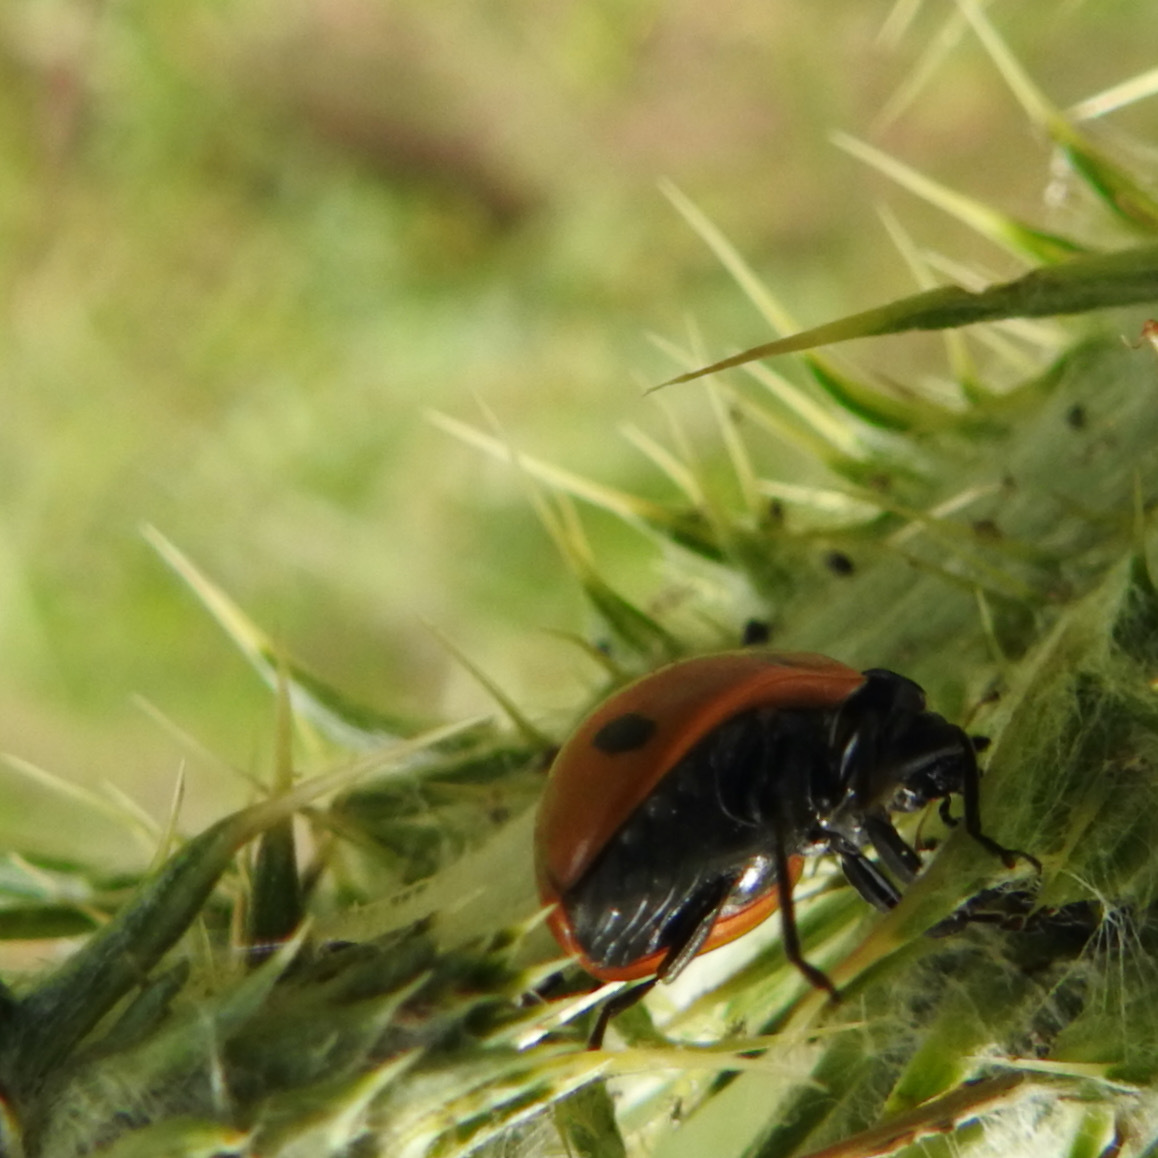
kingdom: Animalia
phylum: Arthropoda
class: Insecta
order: Coleoptera
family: Coccinellidae
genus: Coccinella
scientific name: Coccinella septempunctata
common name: Sevenspotted lady beetle
